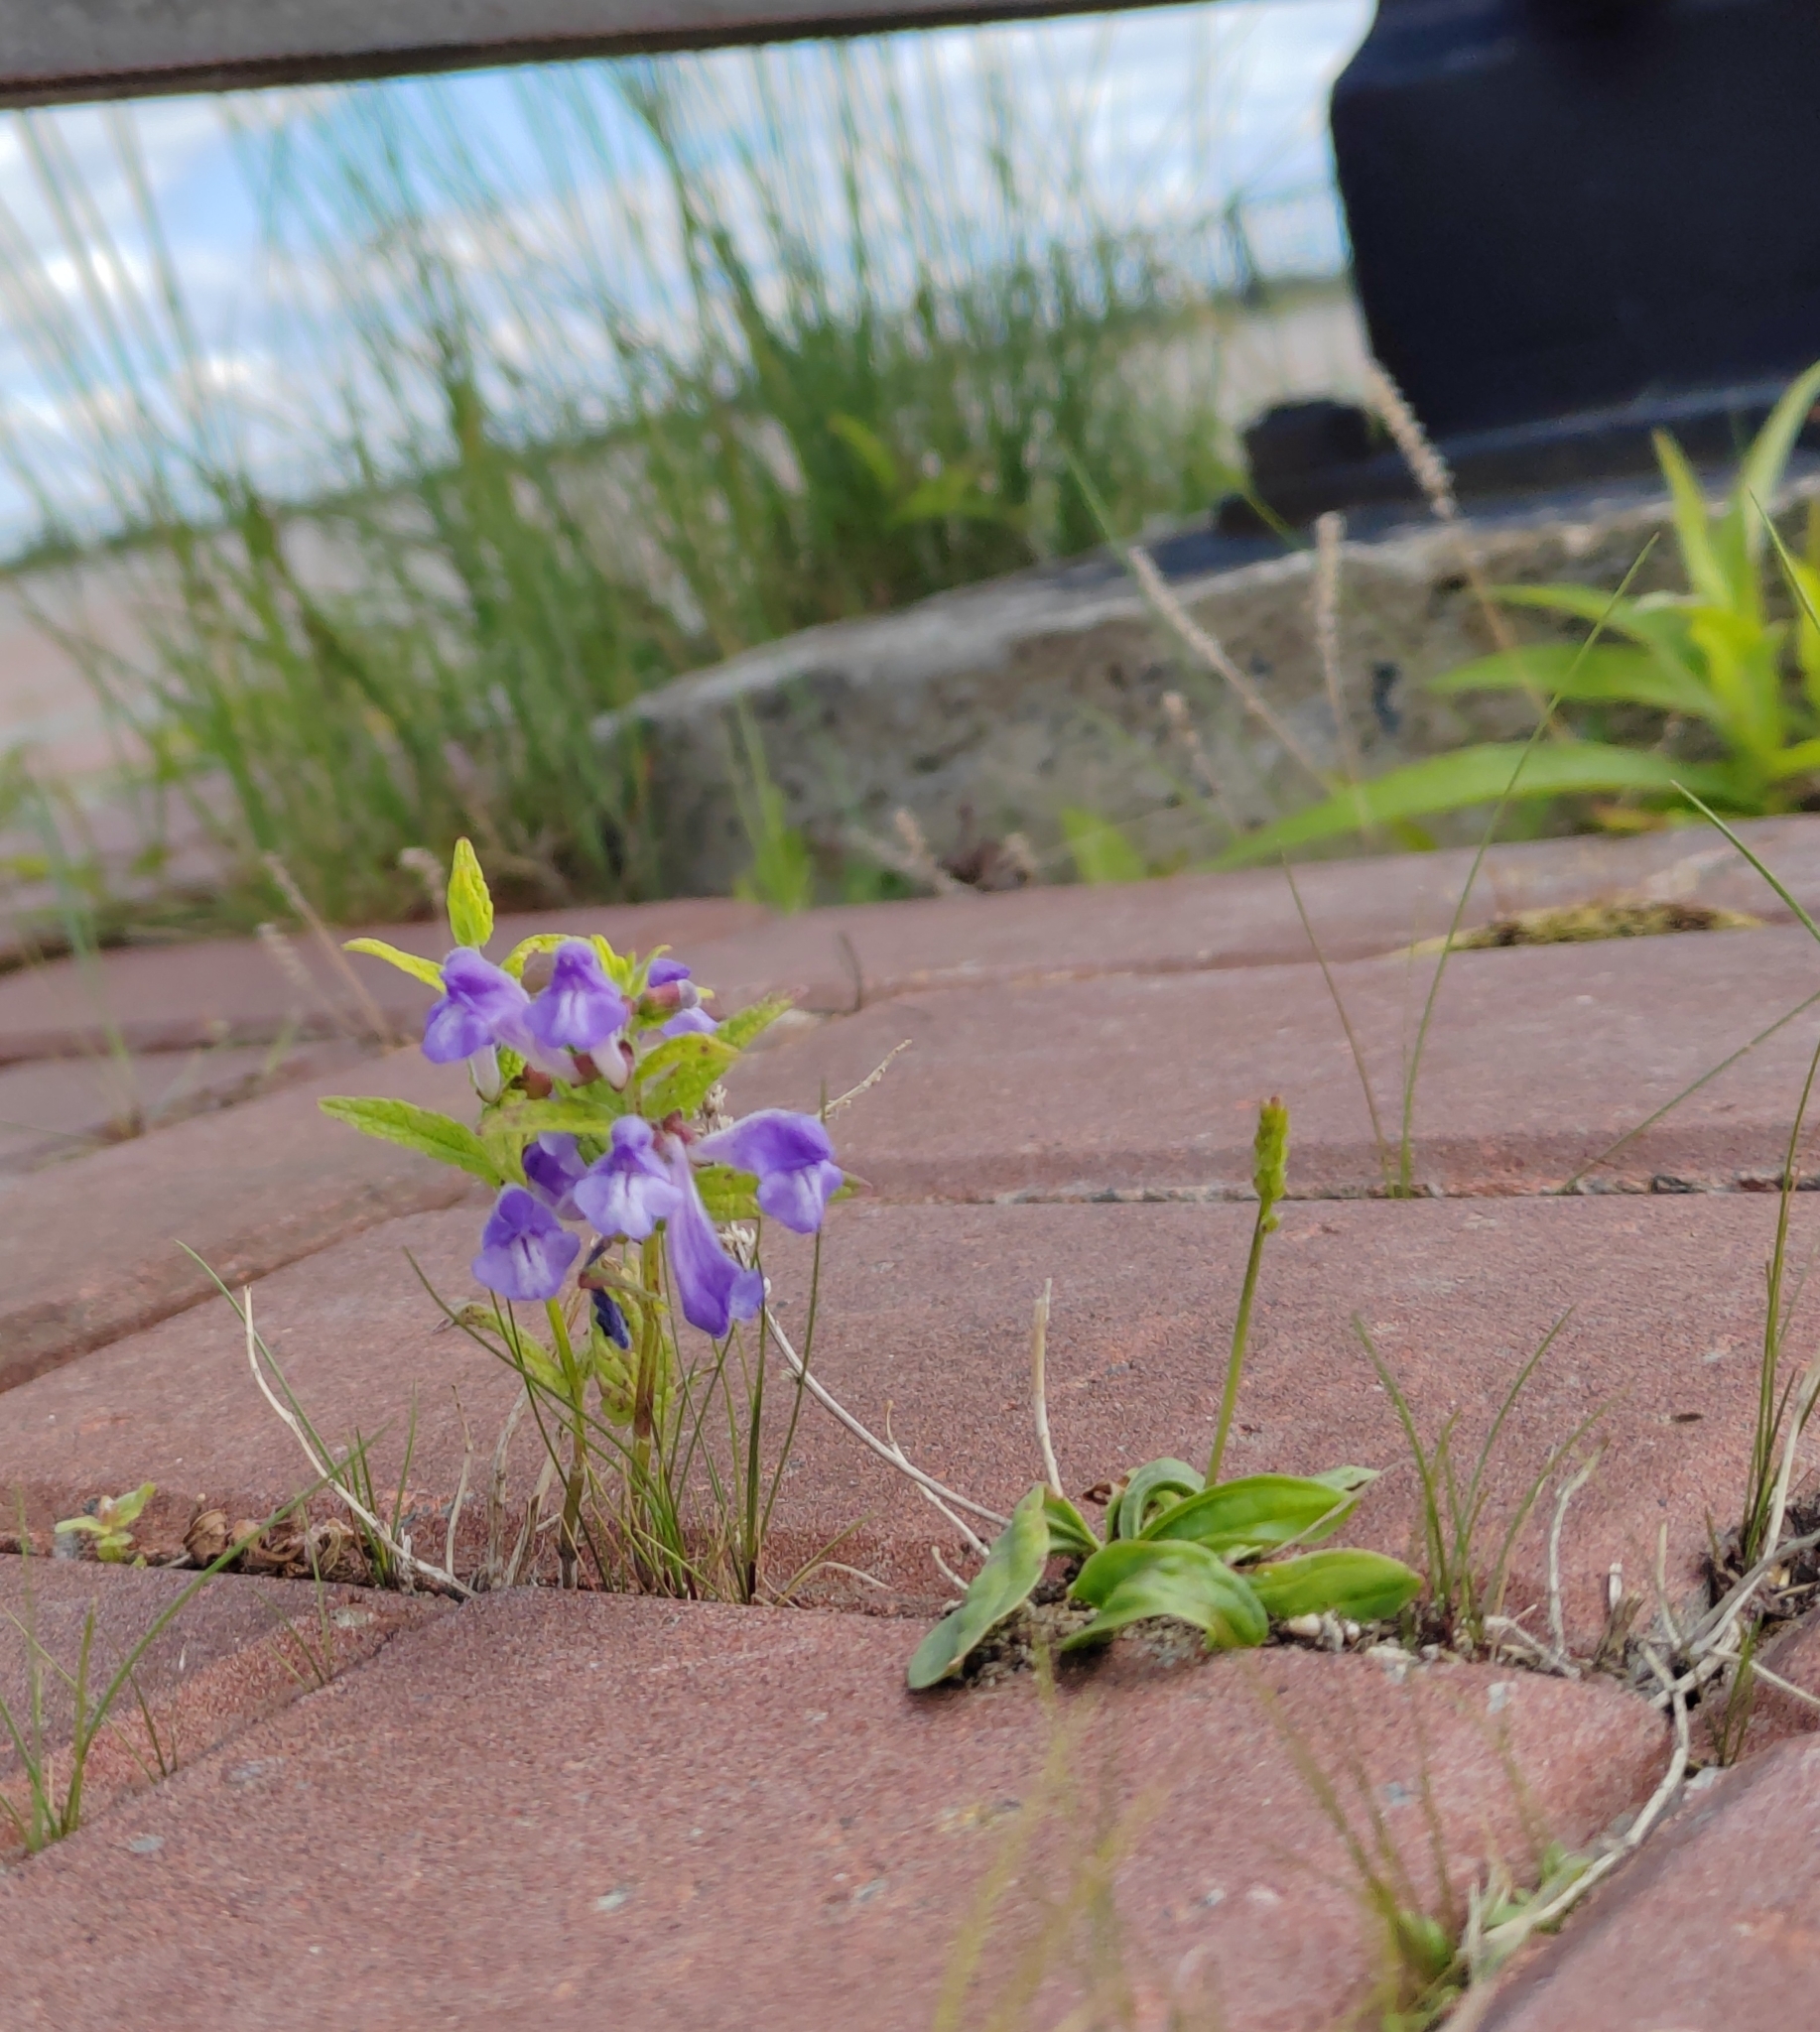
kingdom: Plantae
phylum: Tracheophyta
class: Magnoliopsida
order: Lamiales
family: Lamiaceae
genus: Scutellaria
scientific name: Scutellaria galericulata
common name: Skullcap
